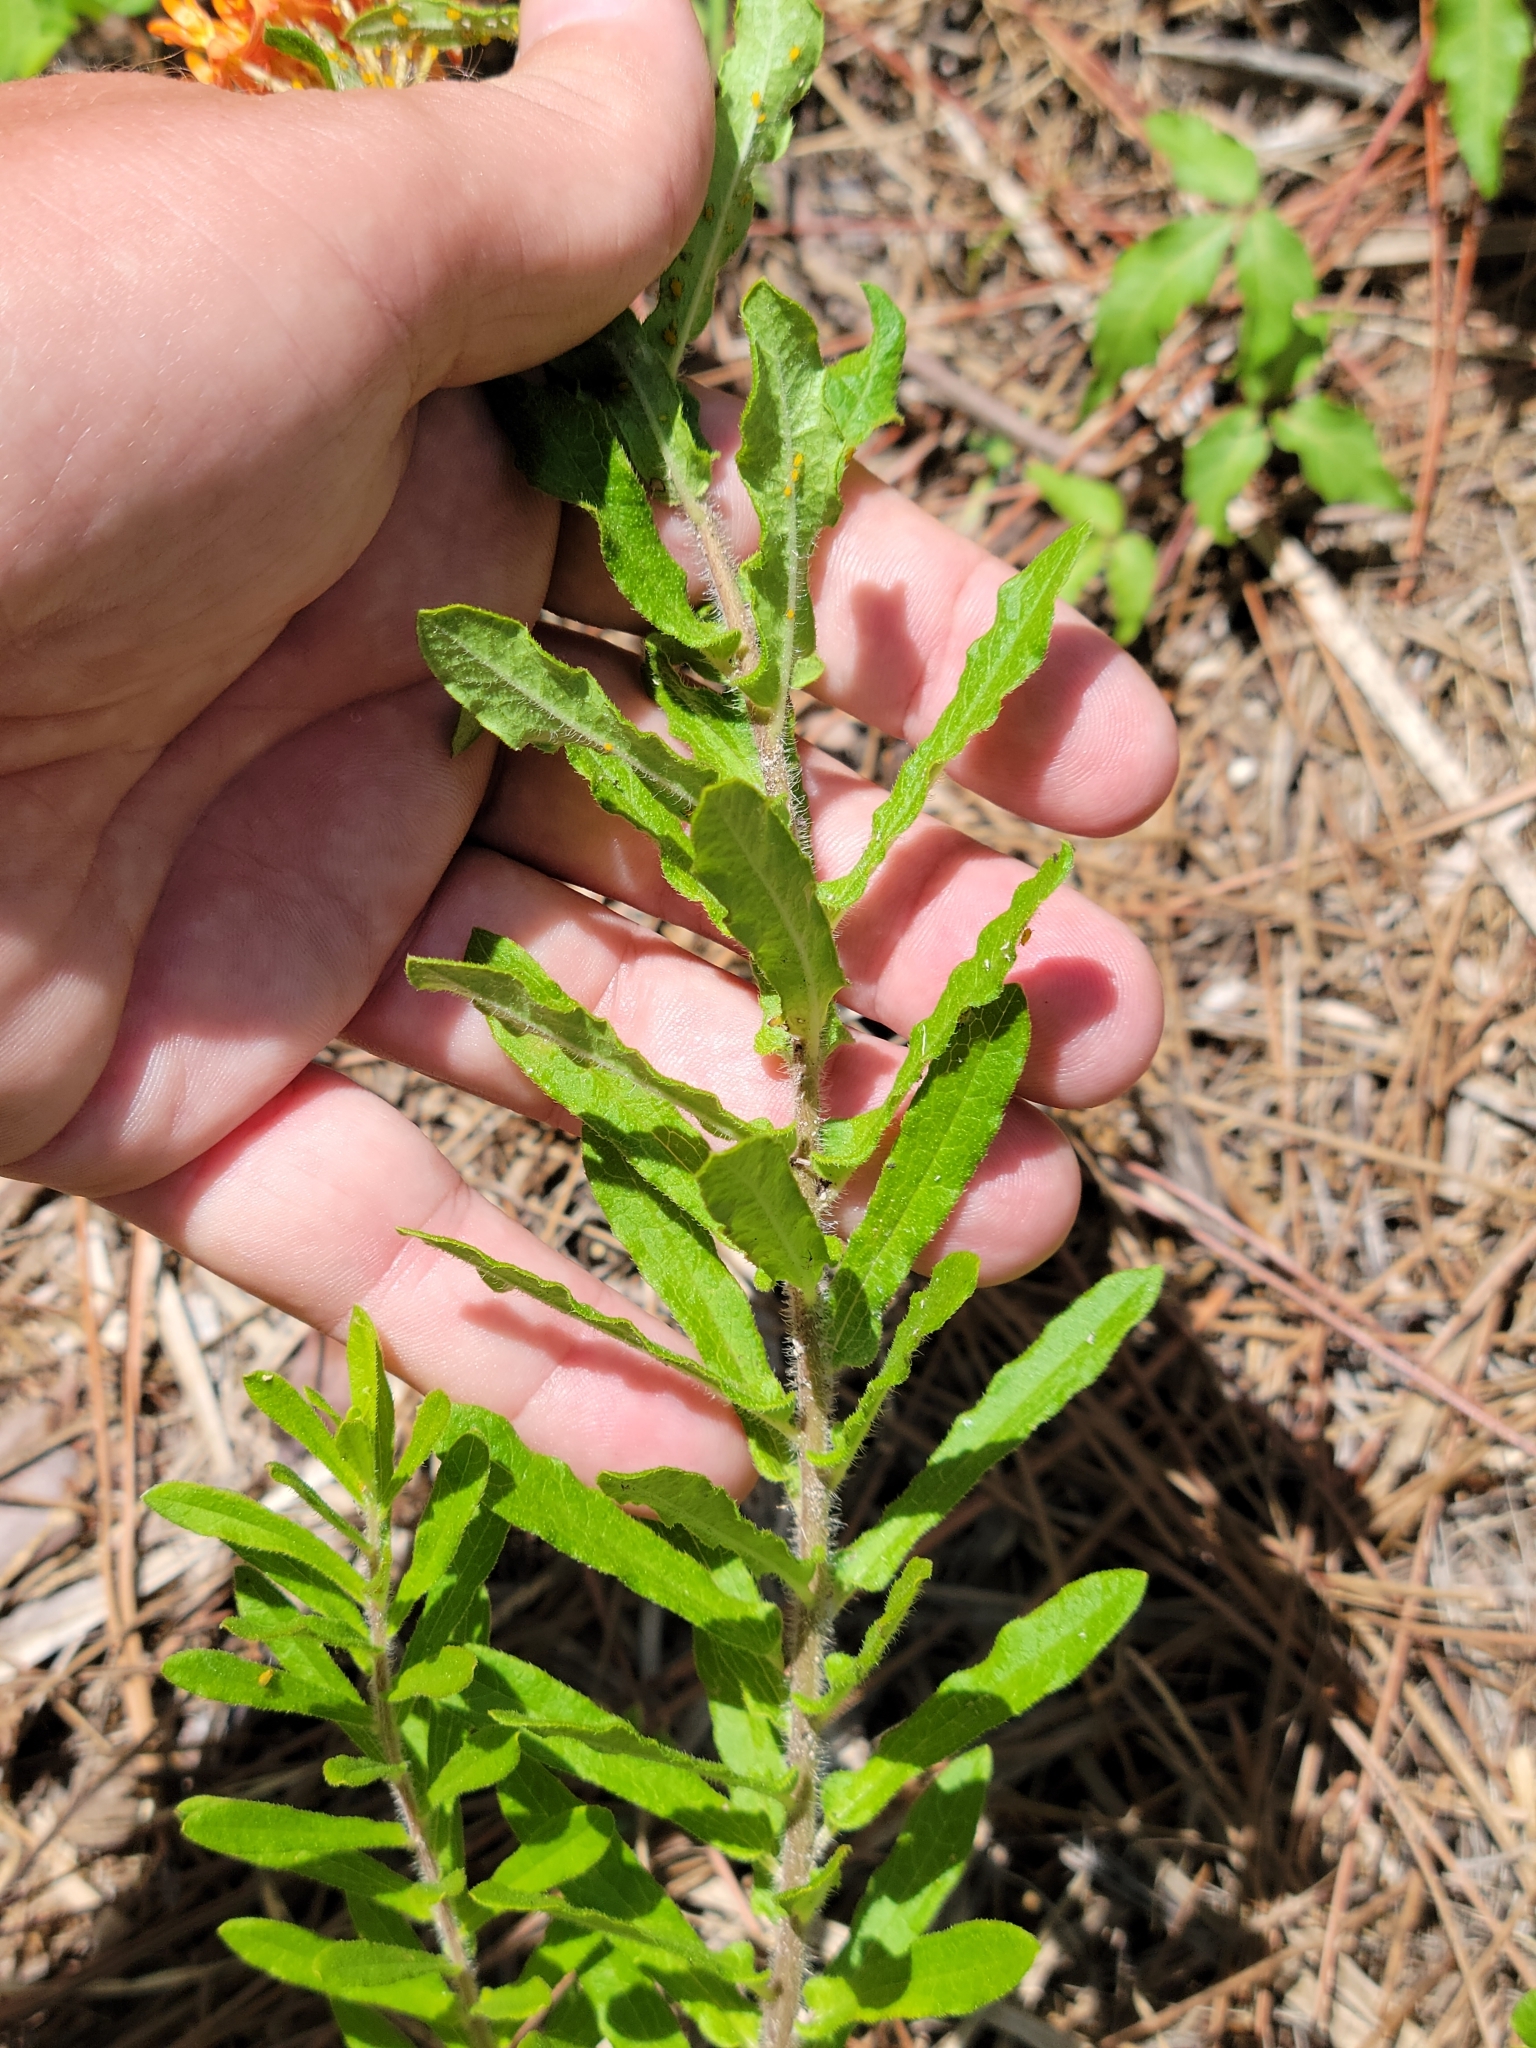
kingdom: Plantae
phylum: Tracheophyta
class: Magnoliopsida
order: Gentianales
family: Apocynaceae
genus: Asclepias
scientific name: Asclepias tuberosa
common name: Butterfly milkweed
